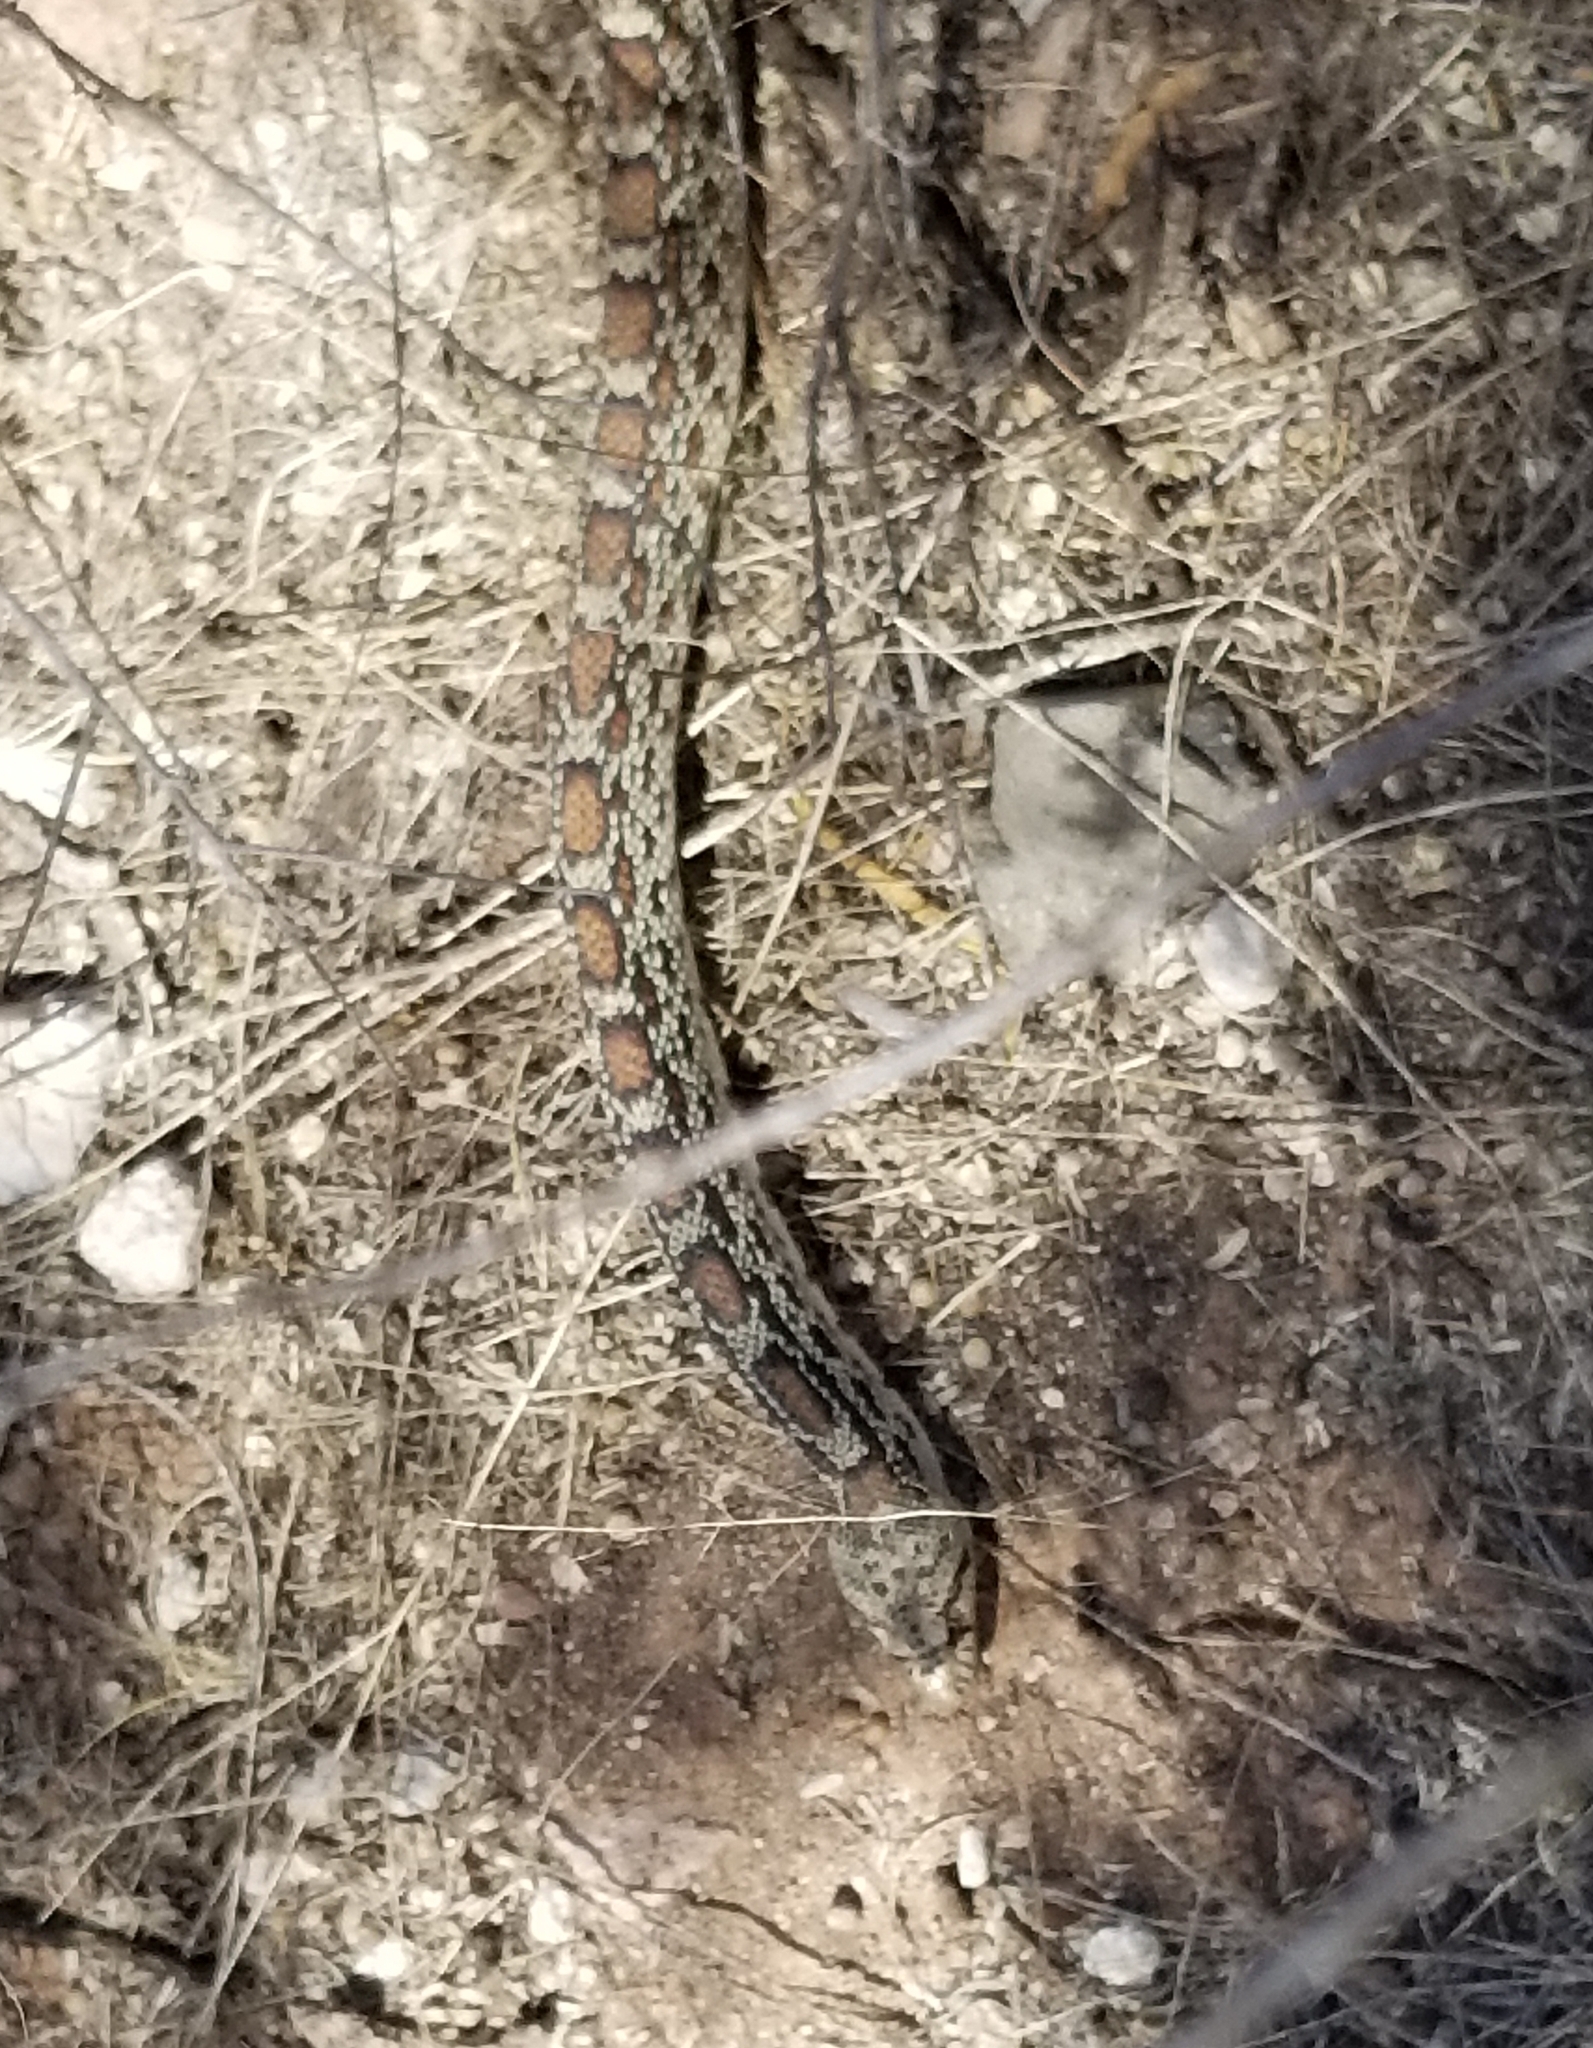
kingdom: Animalia
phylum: Chordata
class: Squamata
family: Colubridae
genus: Pituophis
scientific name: Pituophis catenifer
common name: Gopher snake
